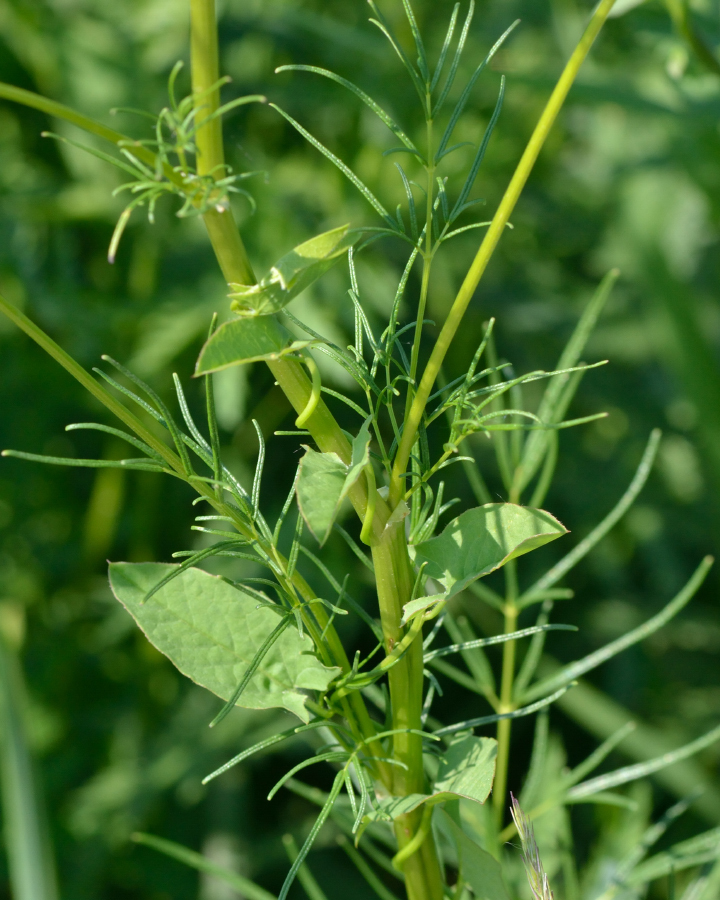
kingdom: Plantae
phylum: Tracheophyta
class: Magnoliopsida
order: Ranunculales
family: Ranunculaceae
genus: Thalictrum
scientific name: Thalictrum lucidum
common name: Shining meadow-rue
